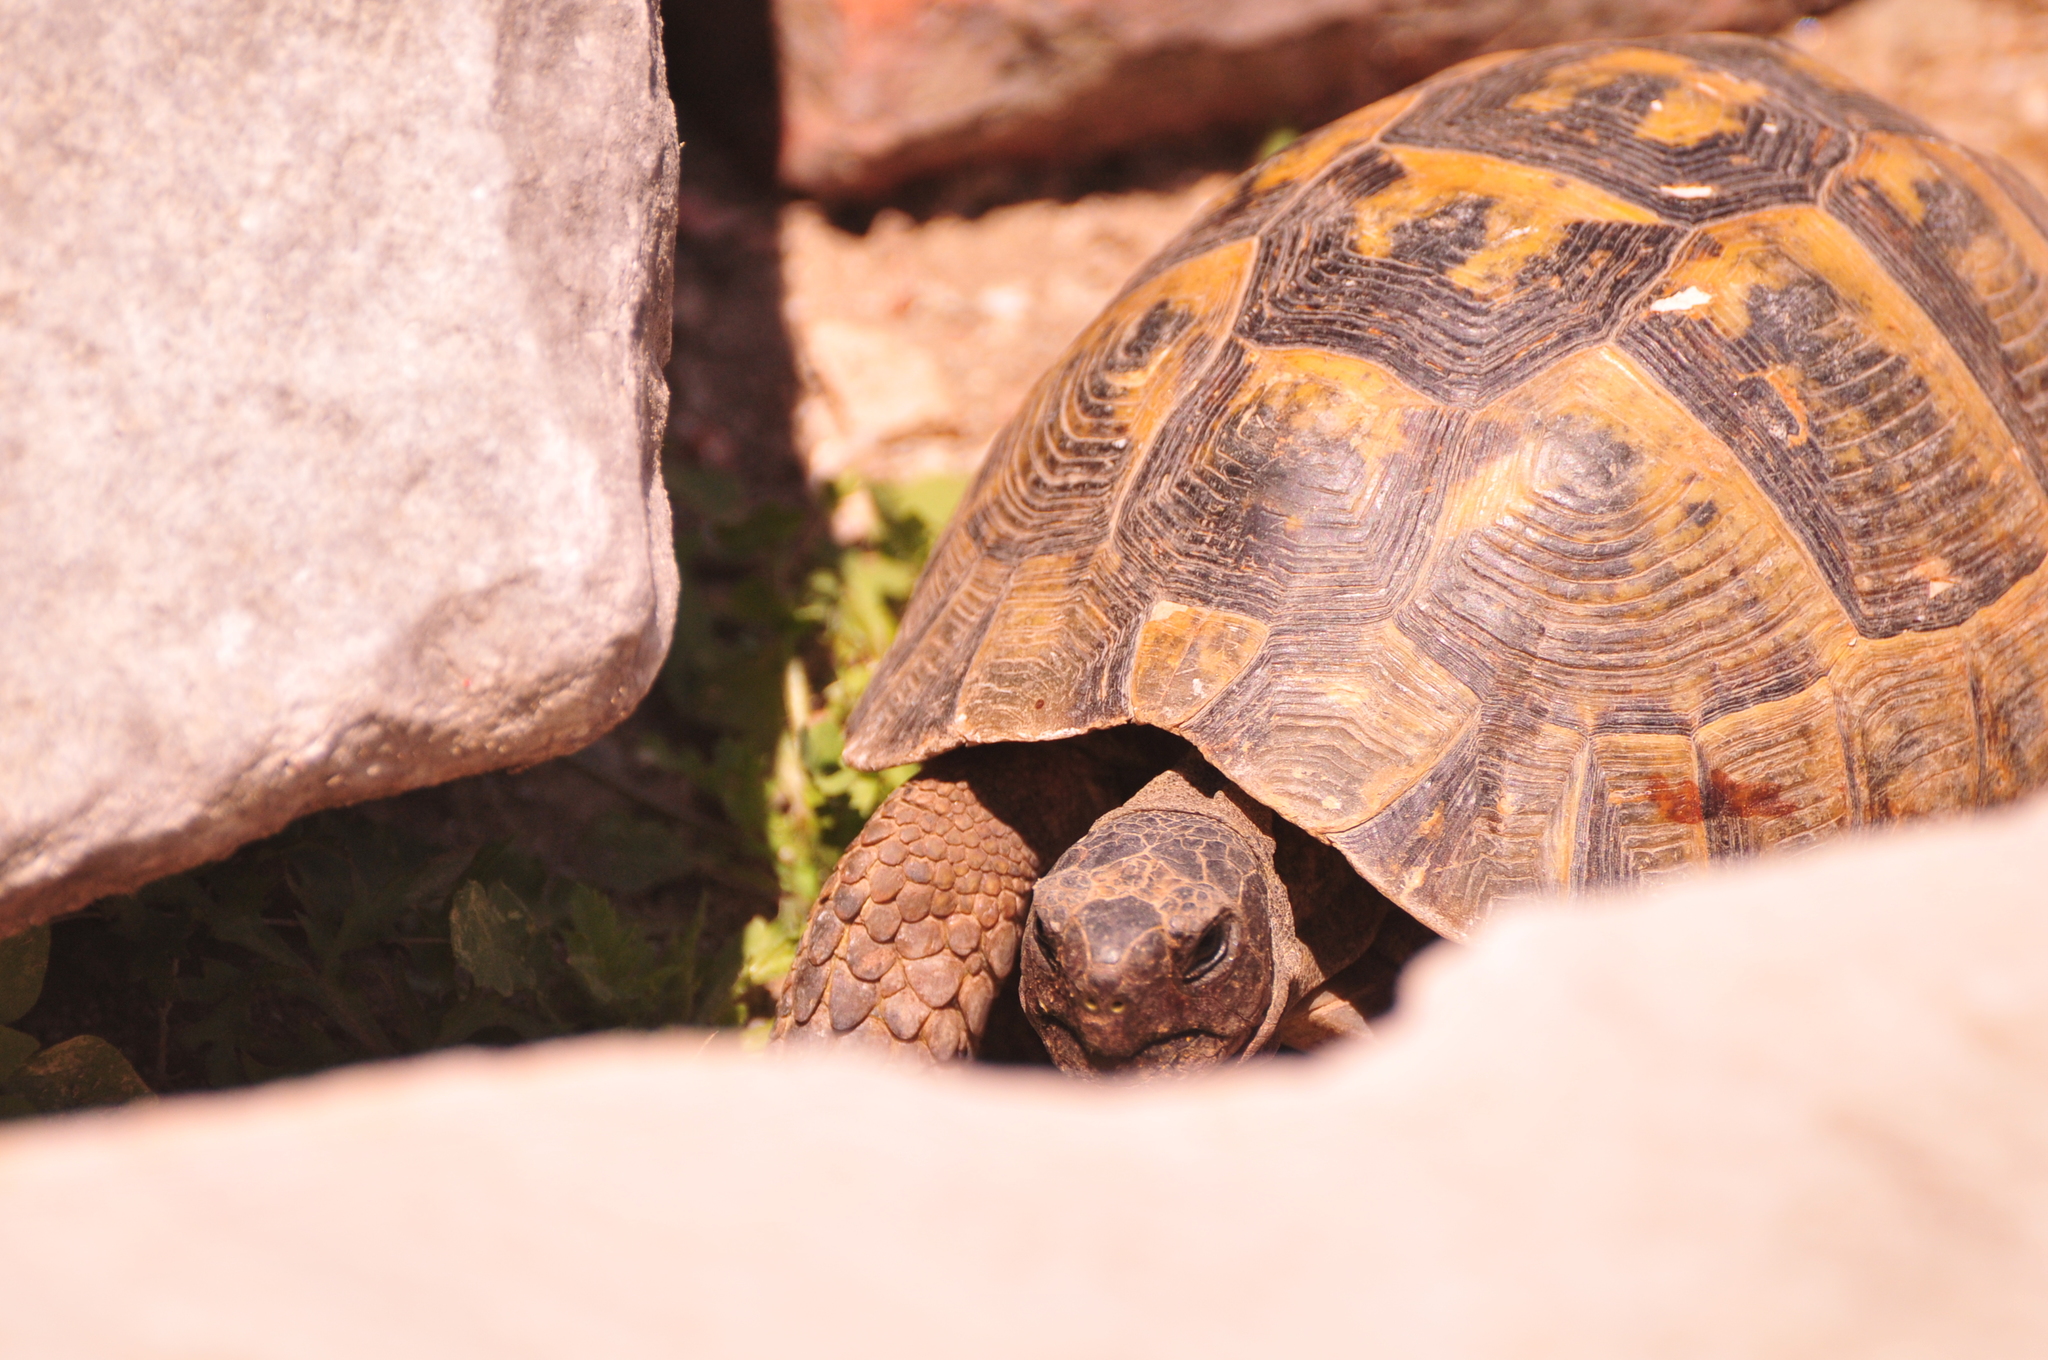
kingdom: Animalia
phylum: Chordata
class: Testudines
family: Testudinidae
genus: Testudo
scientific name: Testudo graeca
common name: Common tortoise
